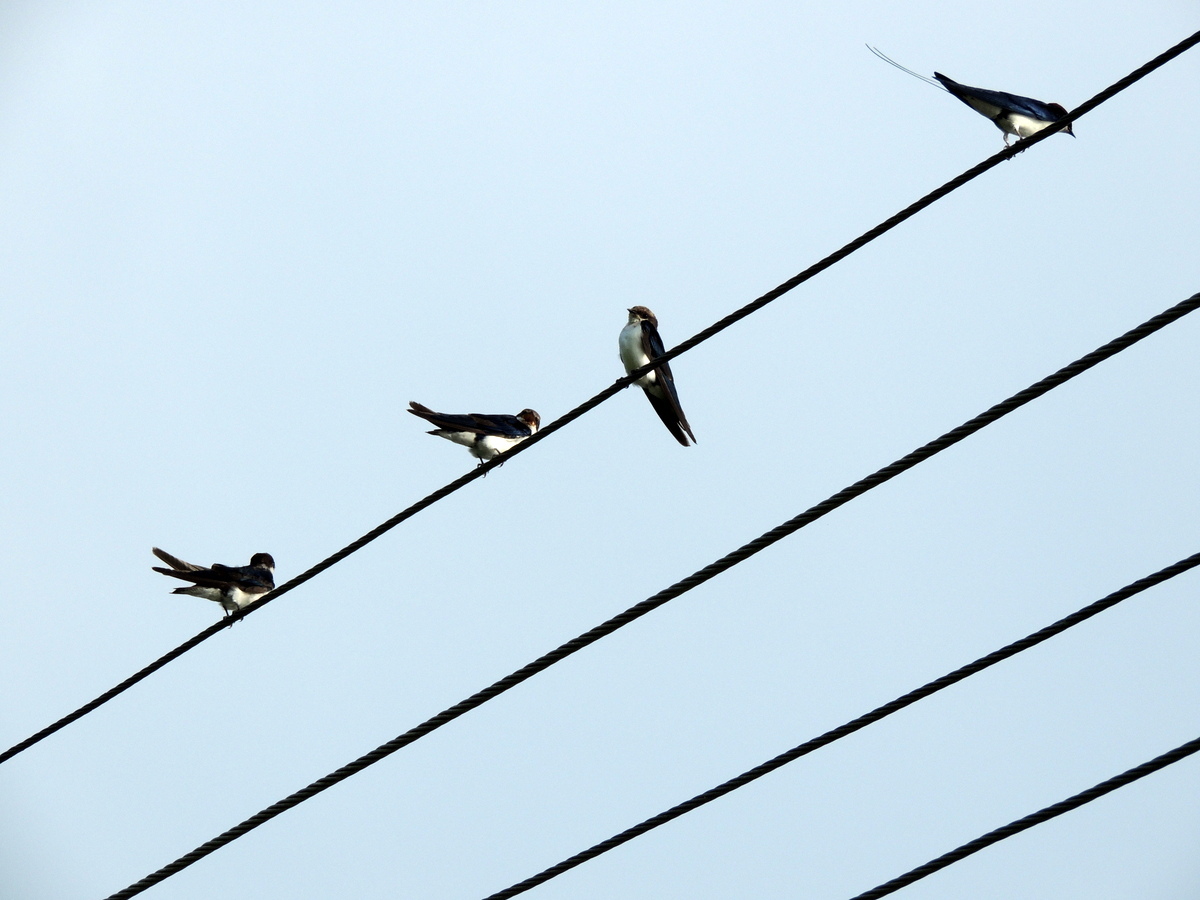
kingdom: Animalia
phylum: Chordata
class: Aves
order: Passeriformes
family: Hirundinidae
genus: Hirundo
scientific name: Hirundo smithii
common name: Wire-tailed swallow
